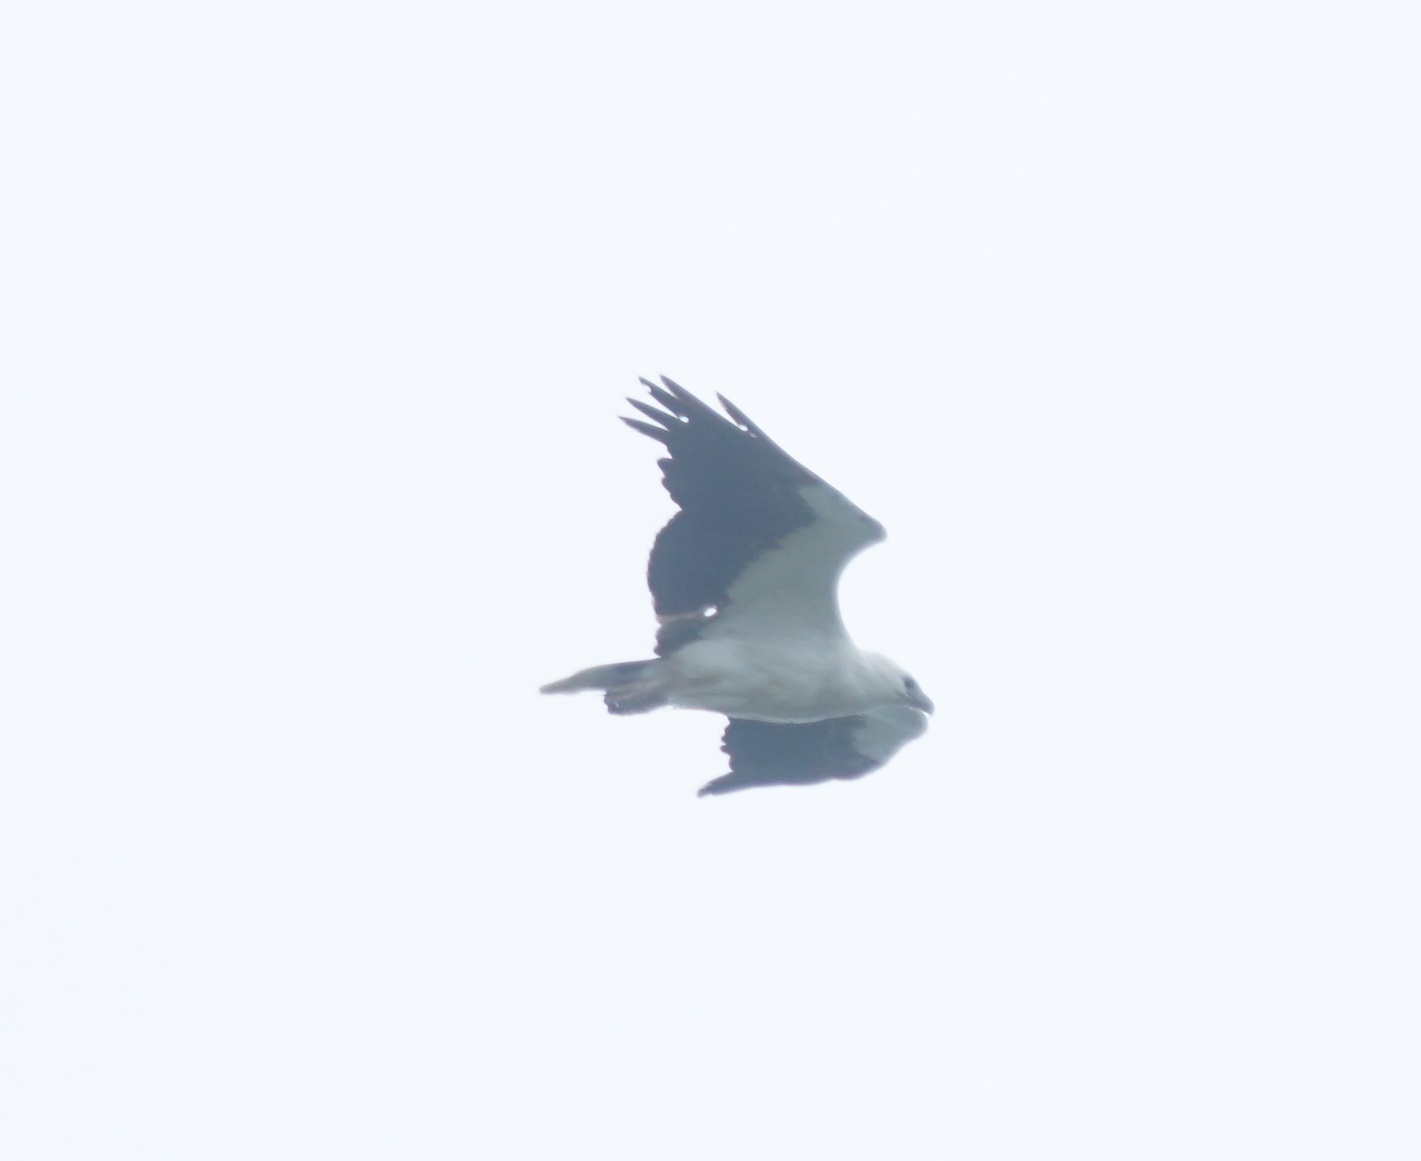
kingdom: Animalia
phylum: Chordata
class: Aves
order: Accipitriformes
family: Accipitridae
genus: Haliaeetus
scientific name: Haliaeetus leucogaster
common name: White-bellied sea eagle
